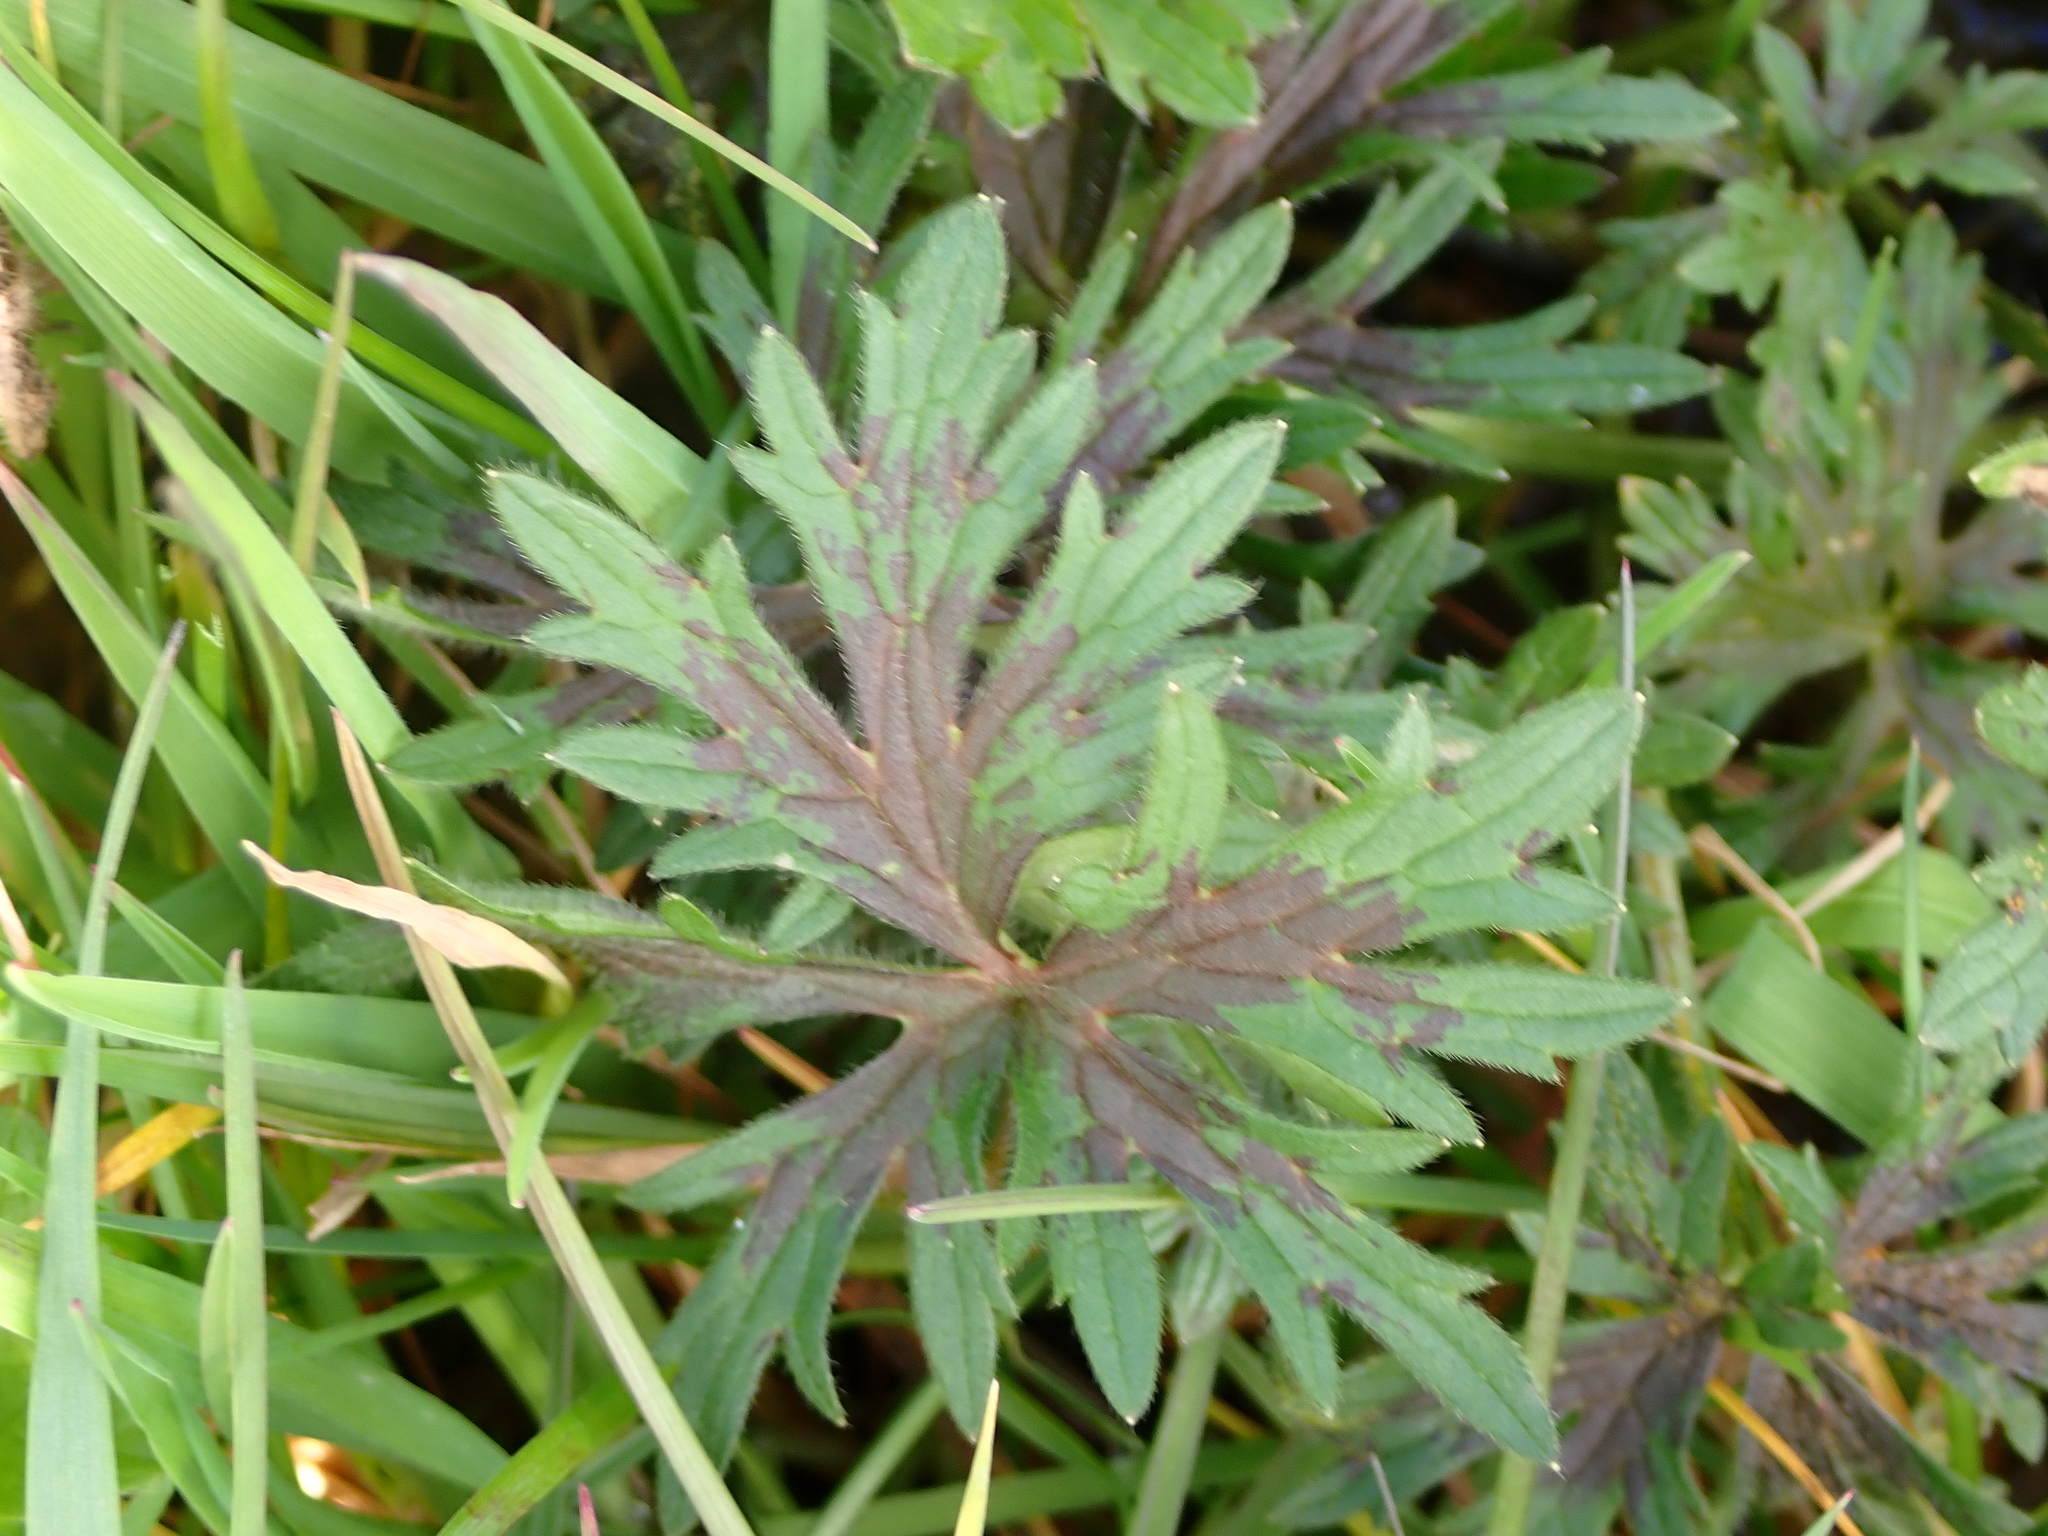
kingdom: Plantae
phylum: Tracheophyta
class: Magnoliopsida
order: Ranunculales
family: Ranunculaceae
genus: Ranunculus
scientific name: Ranunculus acris
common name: Meadow buttercup
